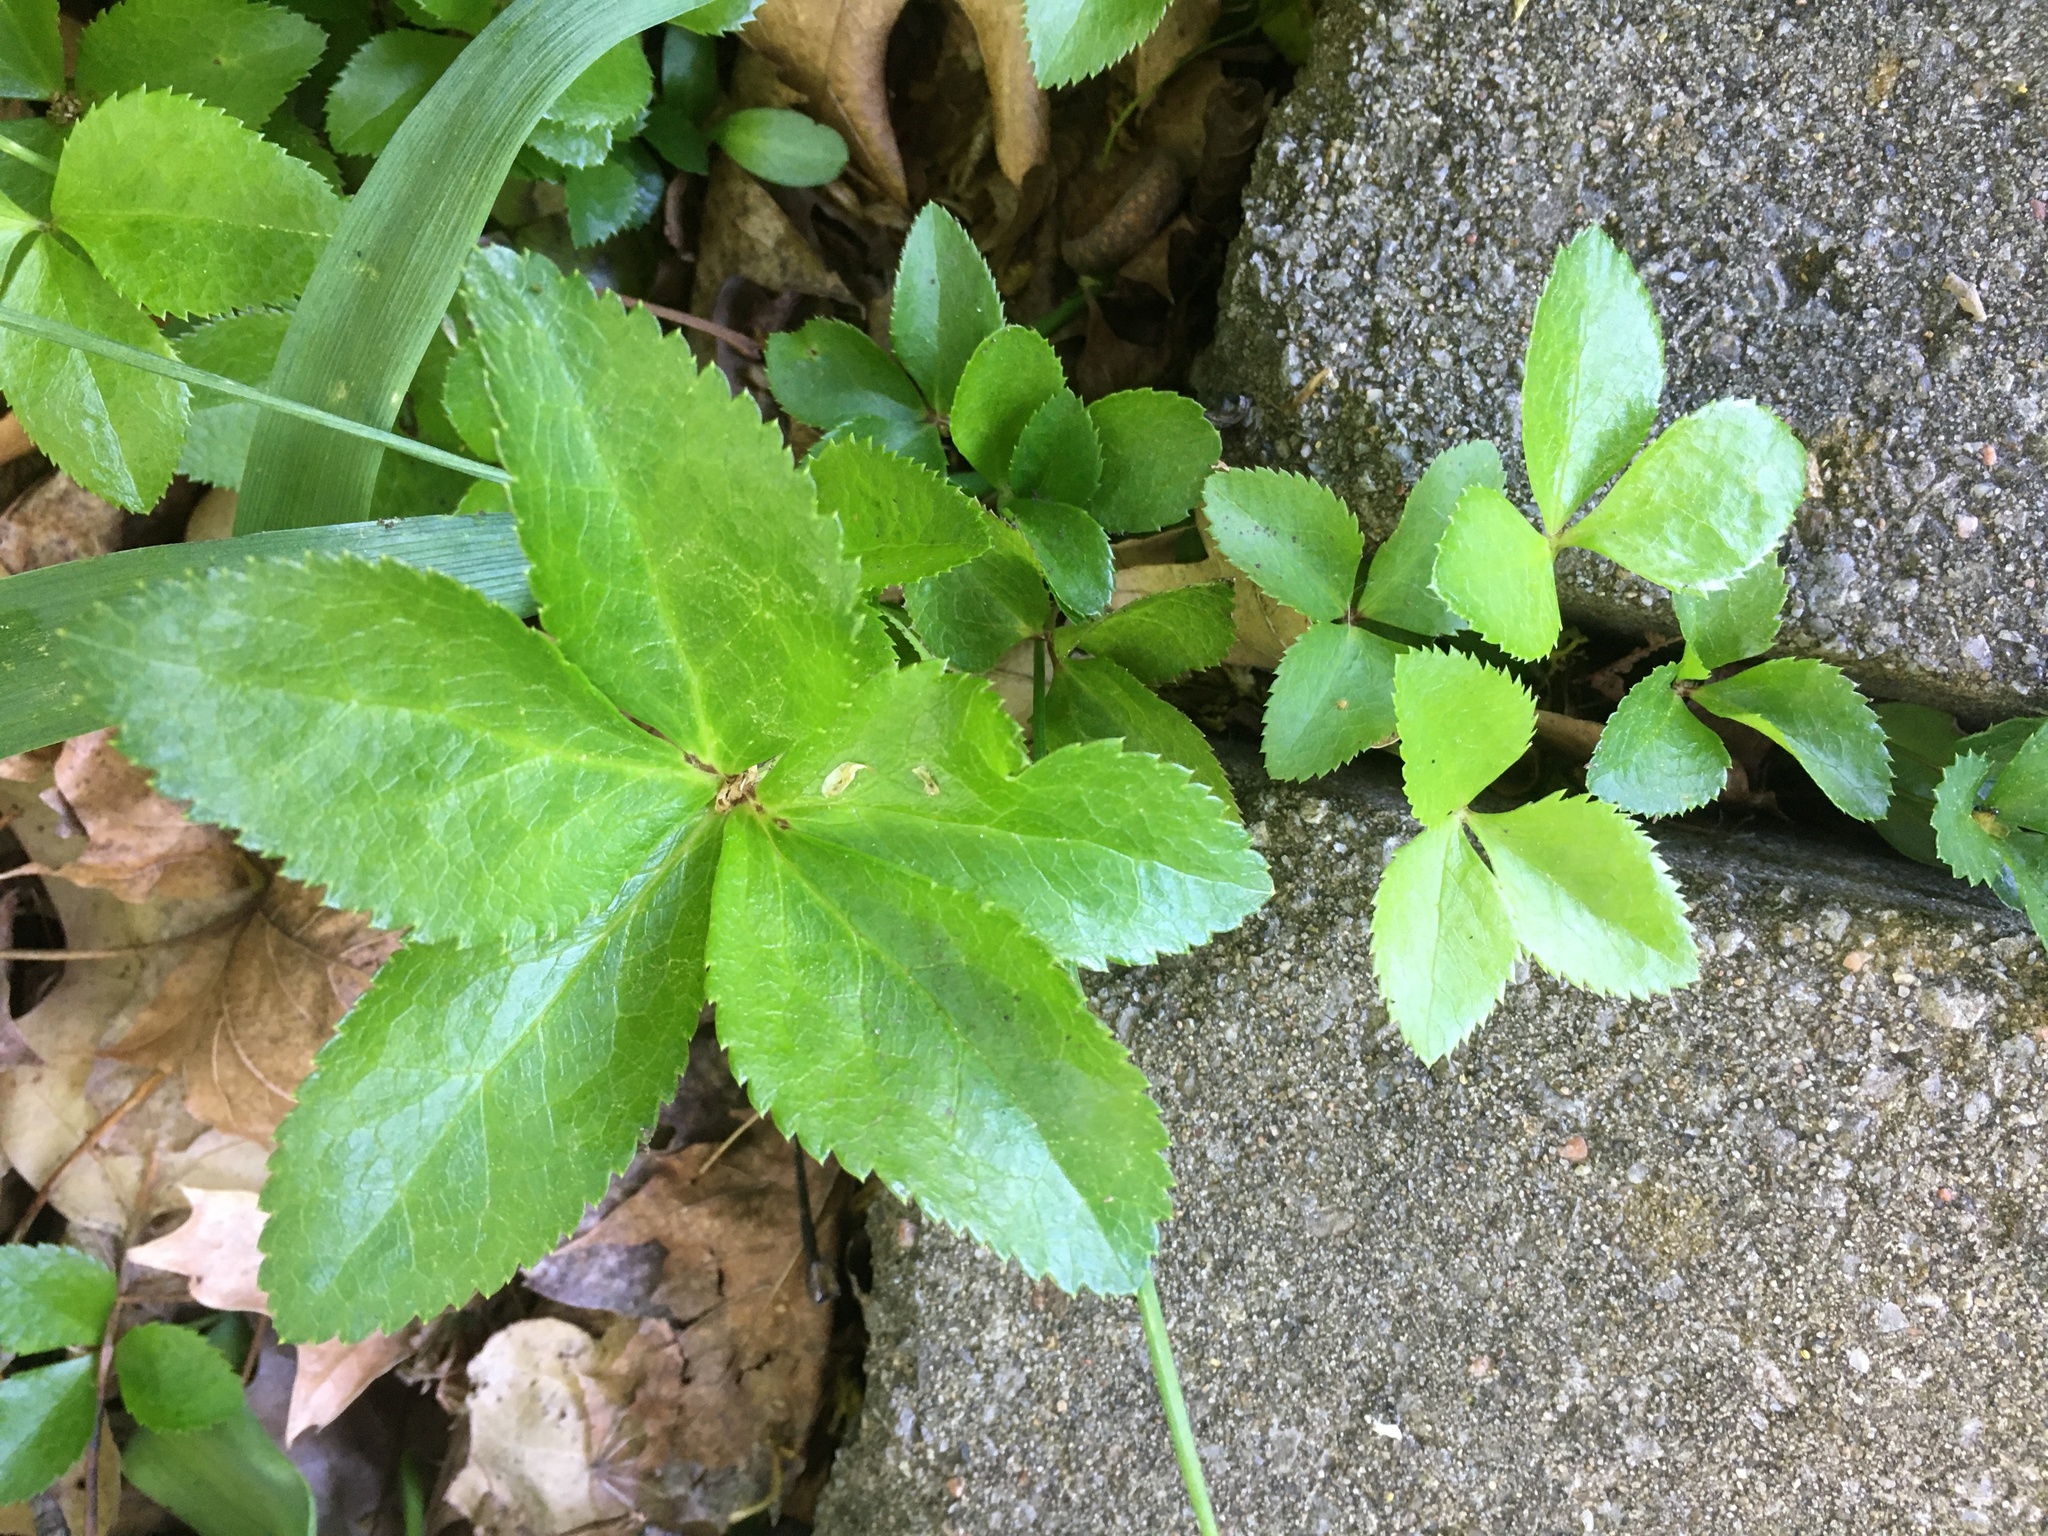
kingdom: Plantae
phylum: Tracheophyta
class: Magnoliopsida
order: Apiales
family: Apiaceae
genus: Ligusticum
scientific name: Ligusticum scothicum
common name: Beach lovage
